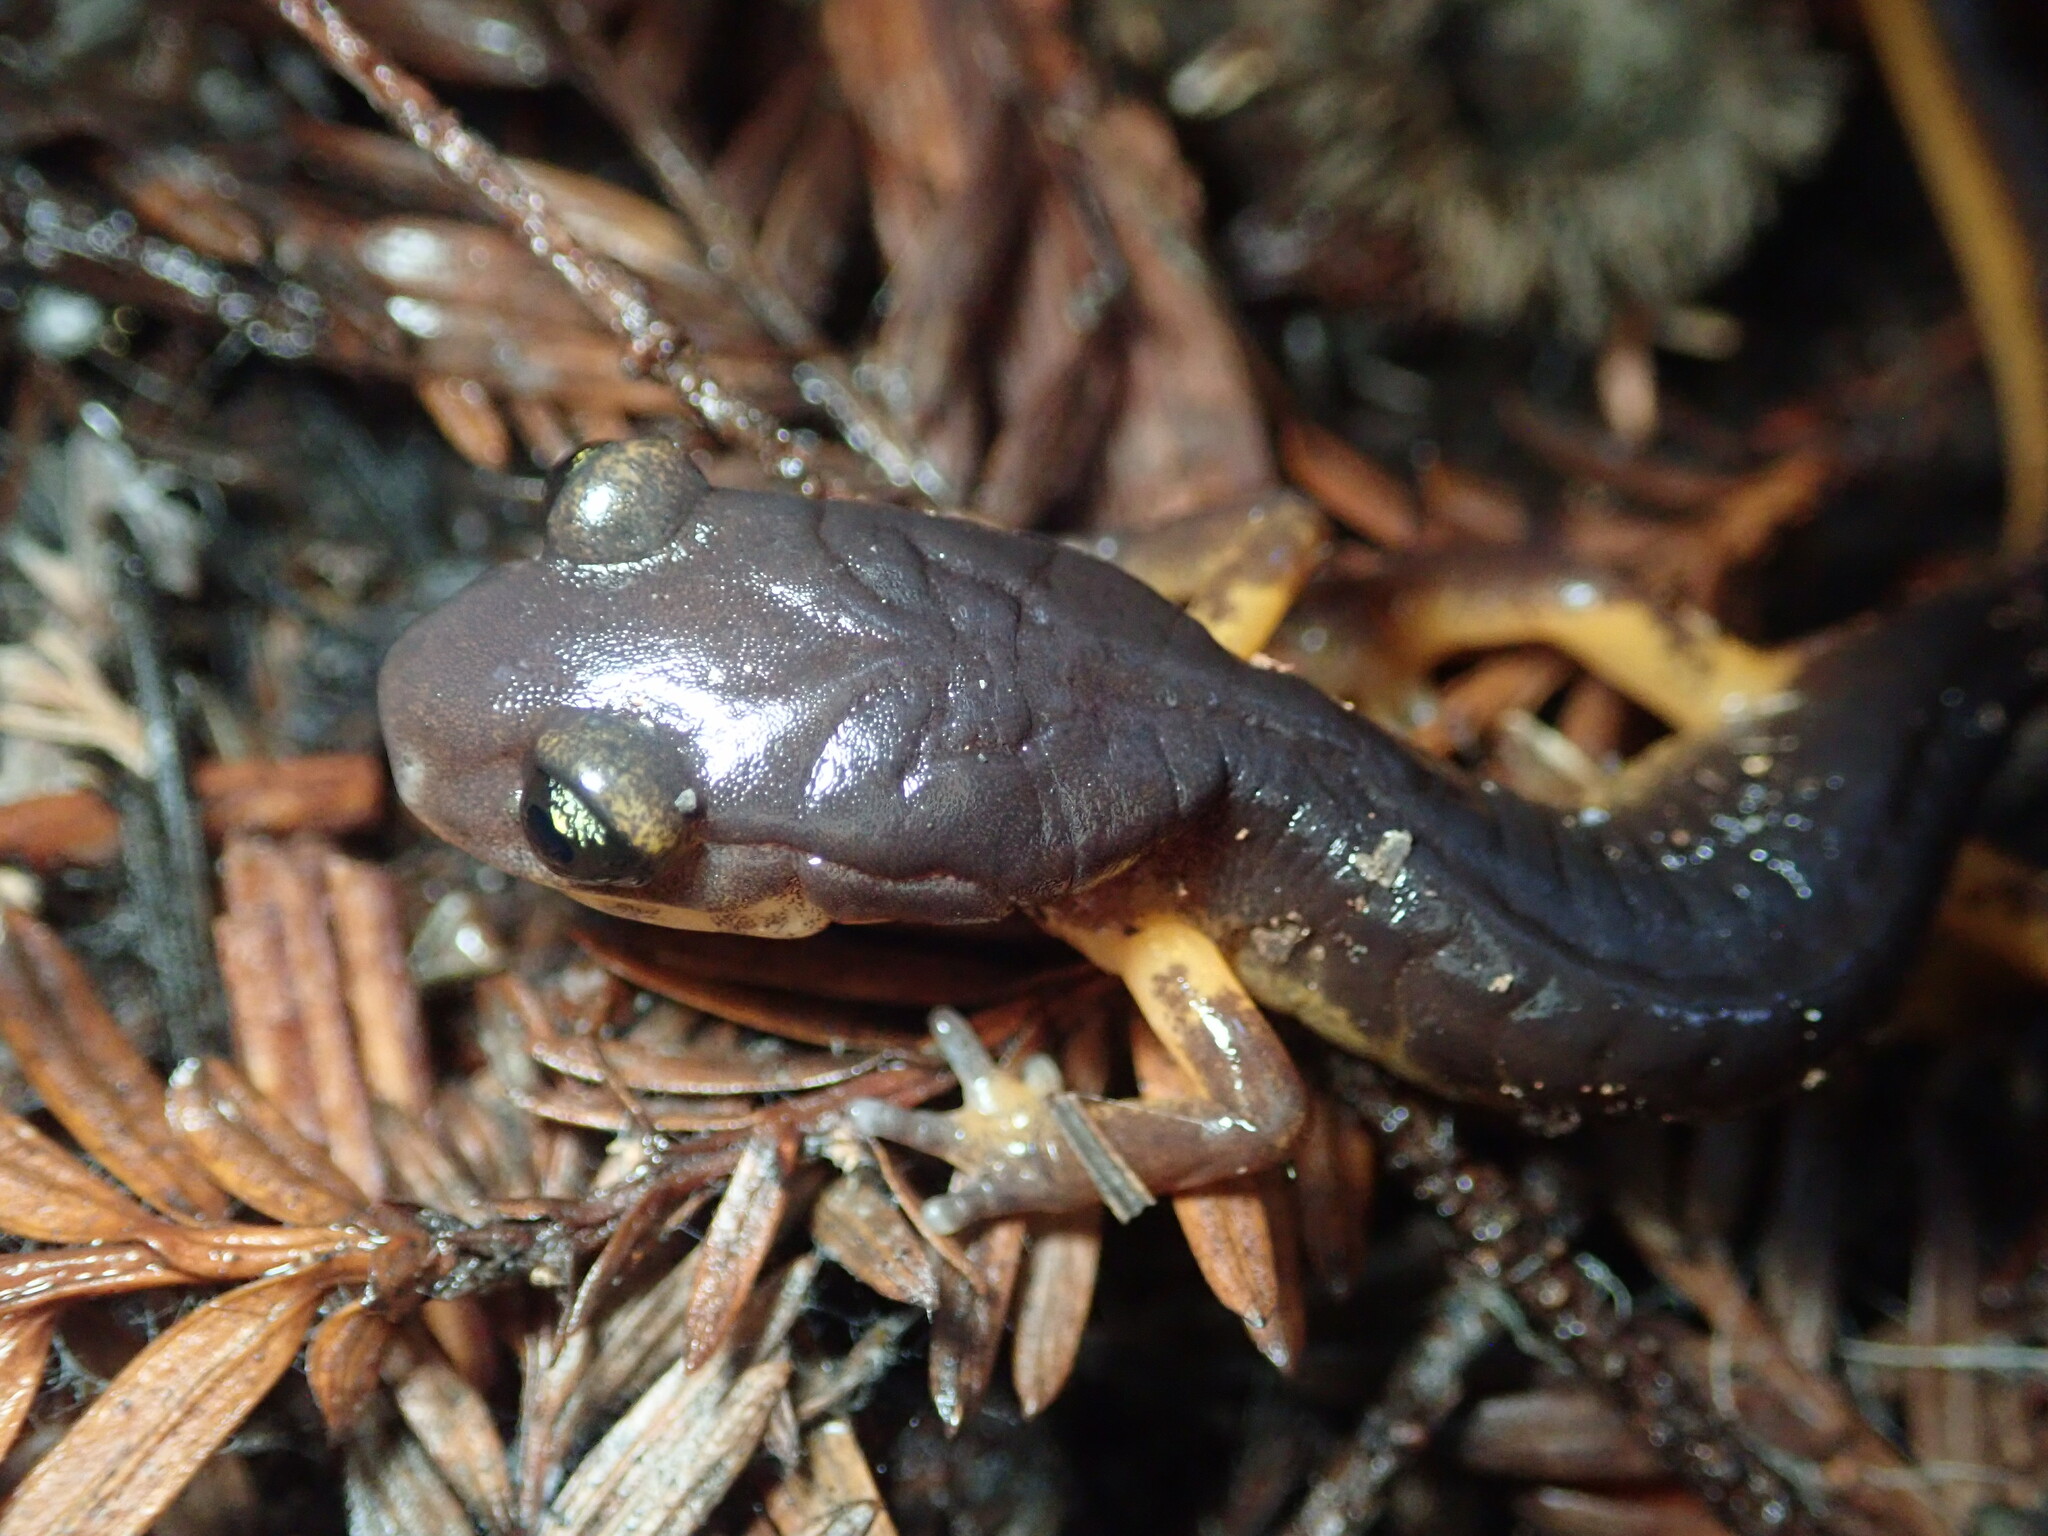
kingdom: Animalia
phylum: Chordata
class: Amphibia
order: Caudata
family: Plethodontidae
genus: Ensatina
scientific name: Ensatina eschscholtzii
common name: Ensatina
